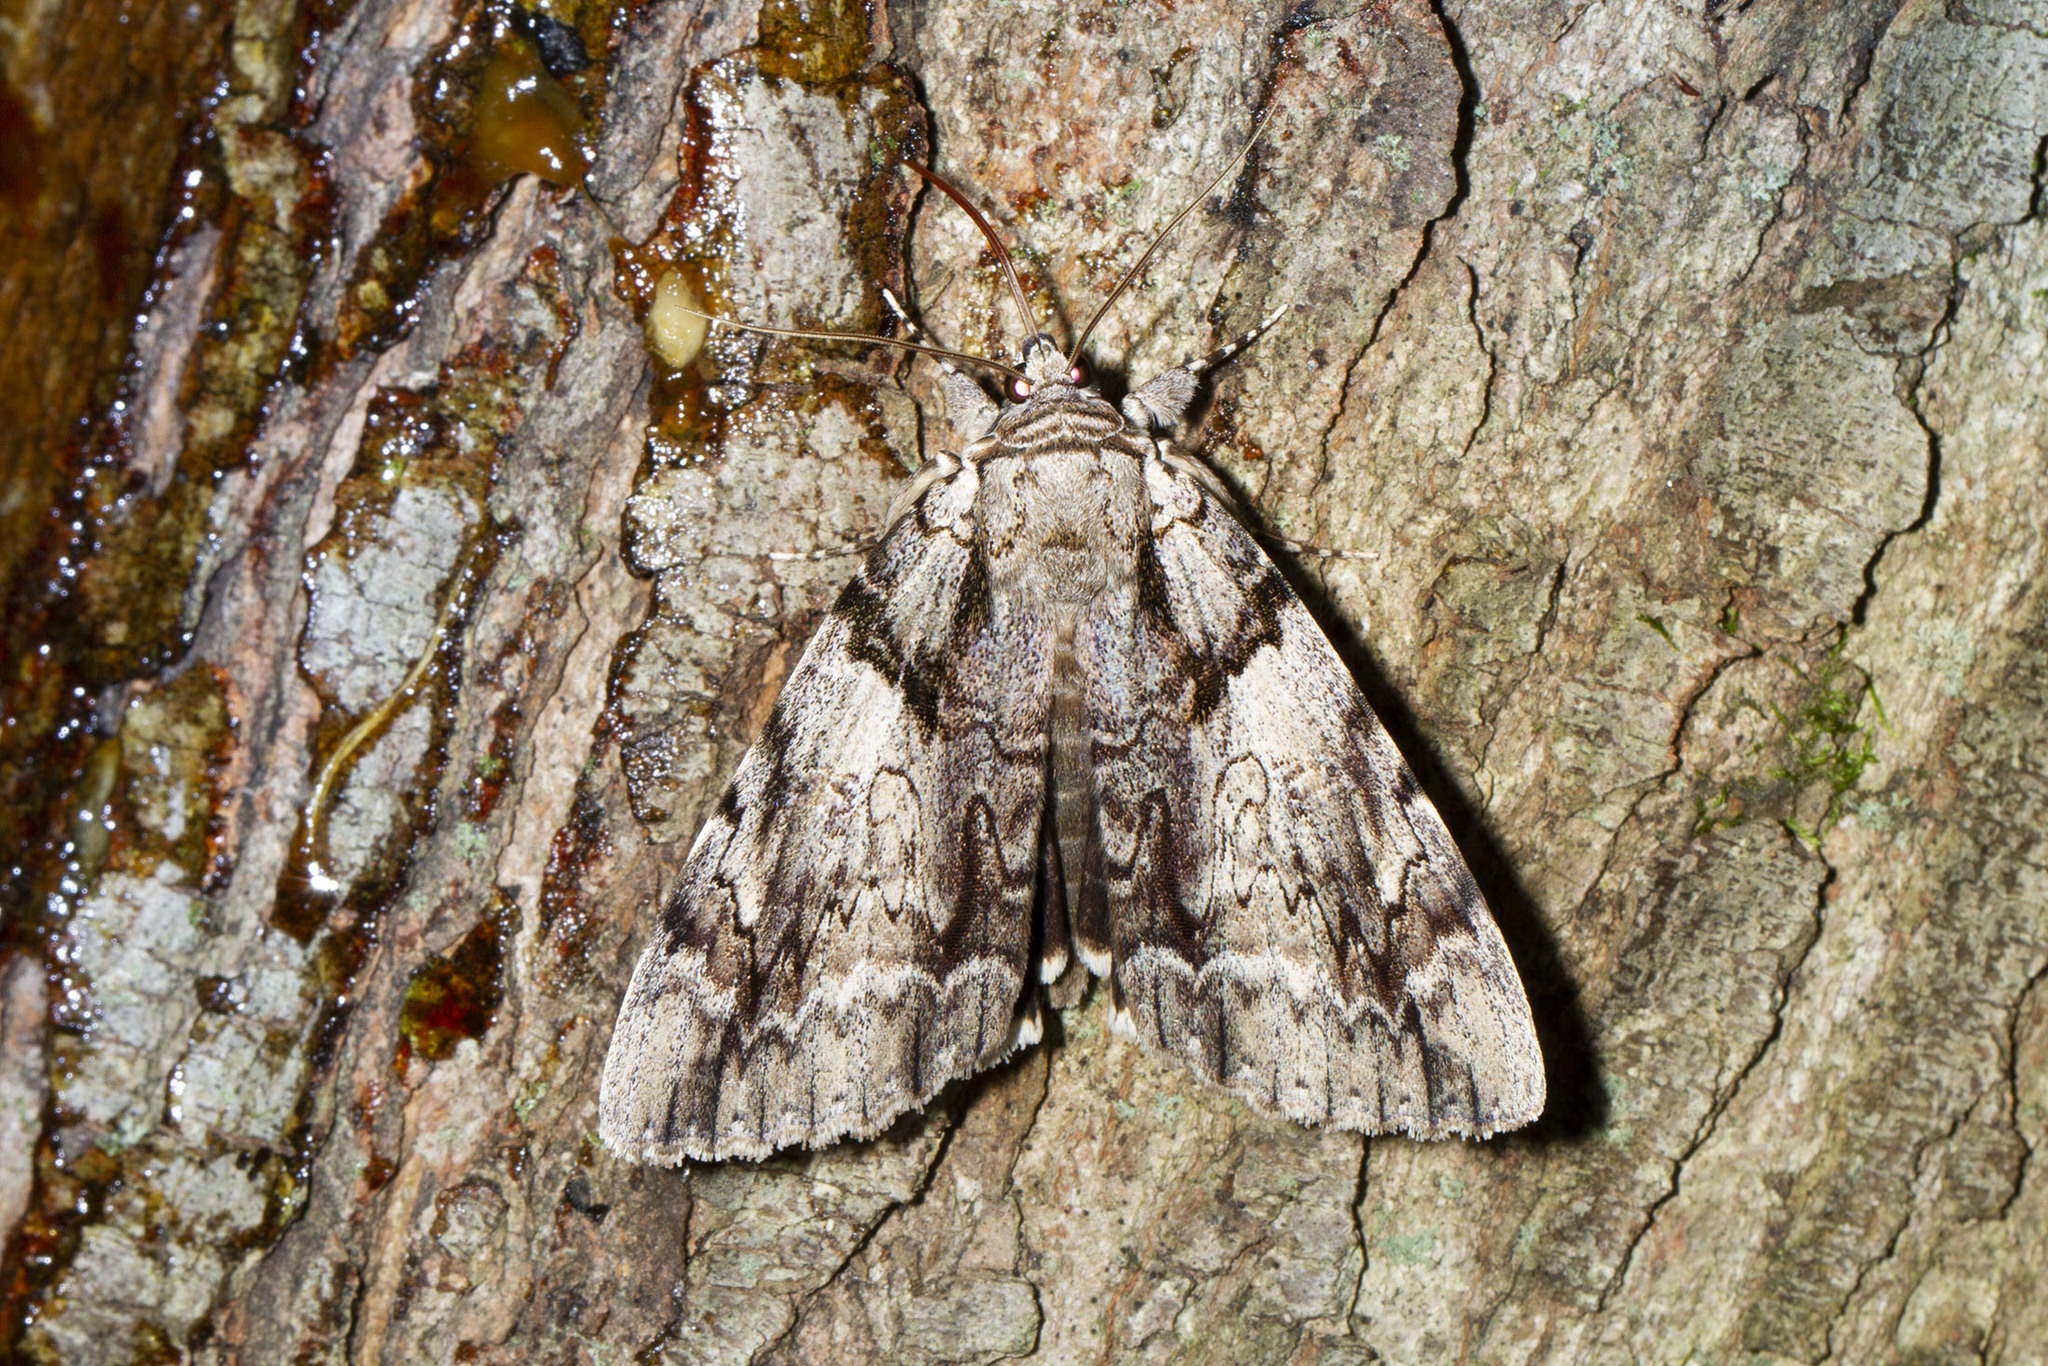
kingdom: Animalia
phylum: Arthropoda
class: Insecta
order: Lepidoptera
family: Erebidae
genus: Catocala
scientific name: Catocala vidua
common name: The widow
